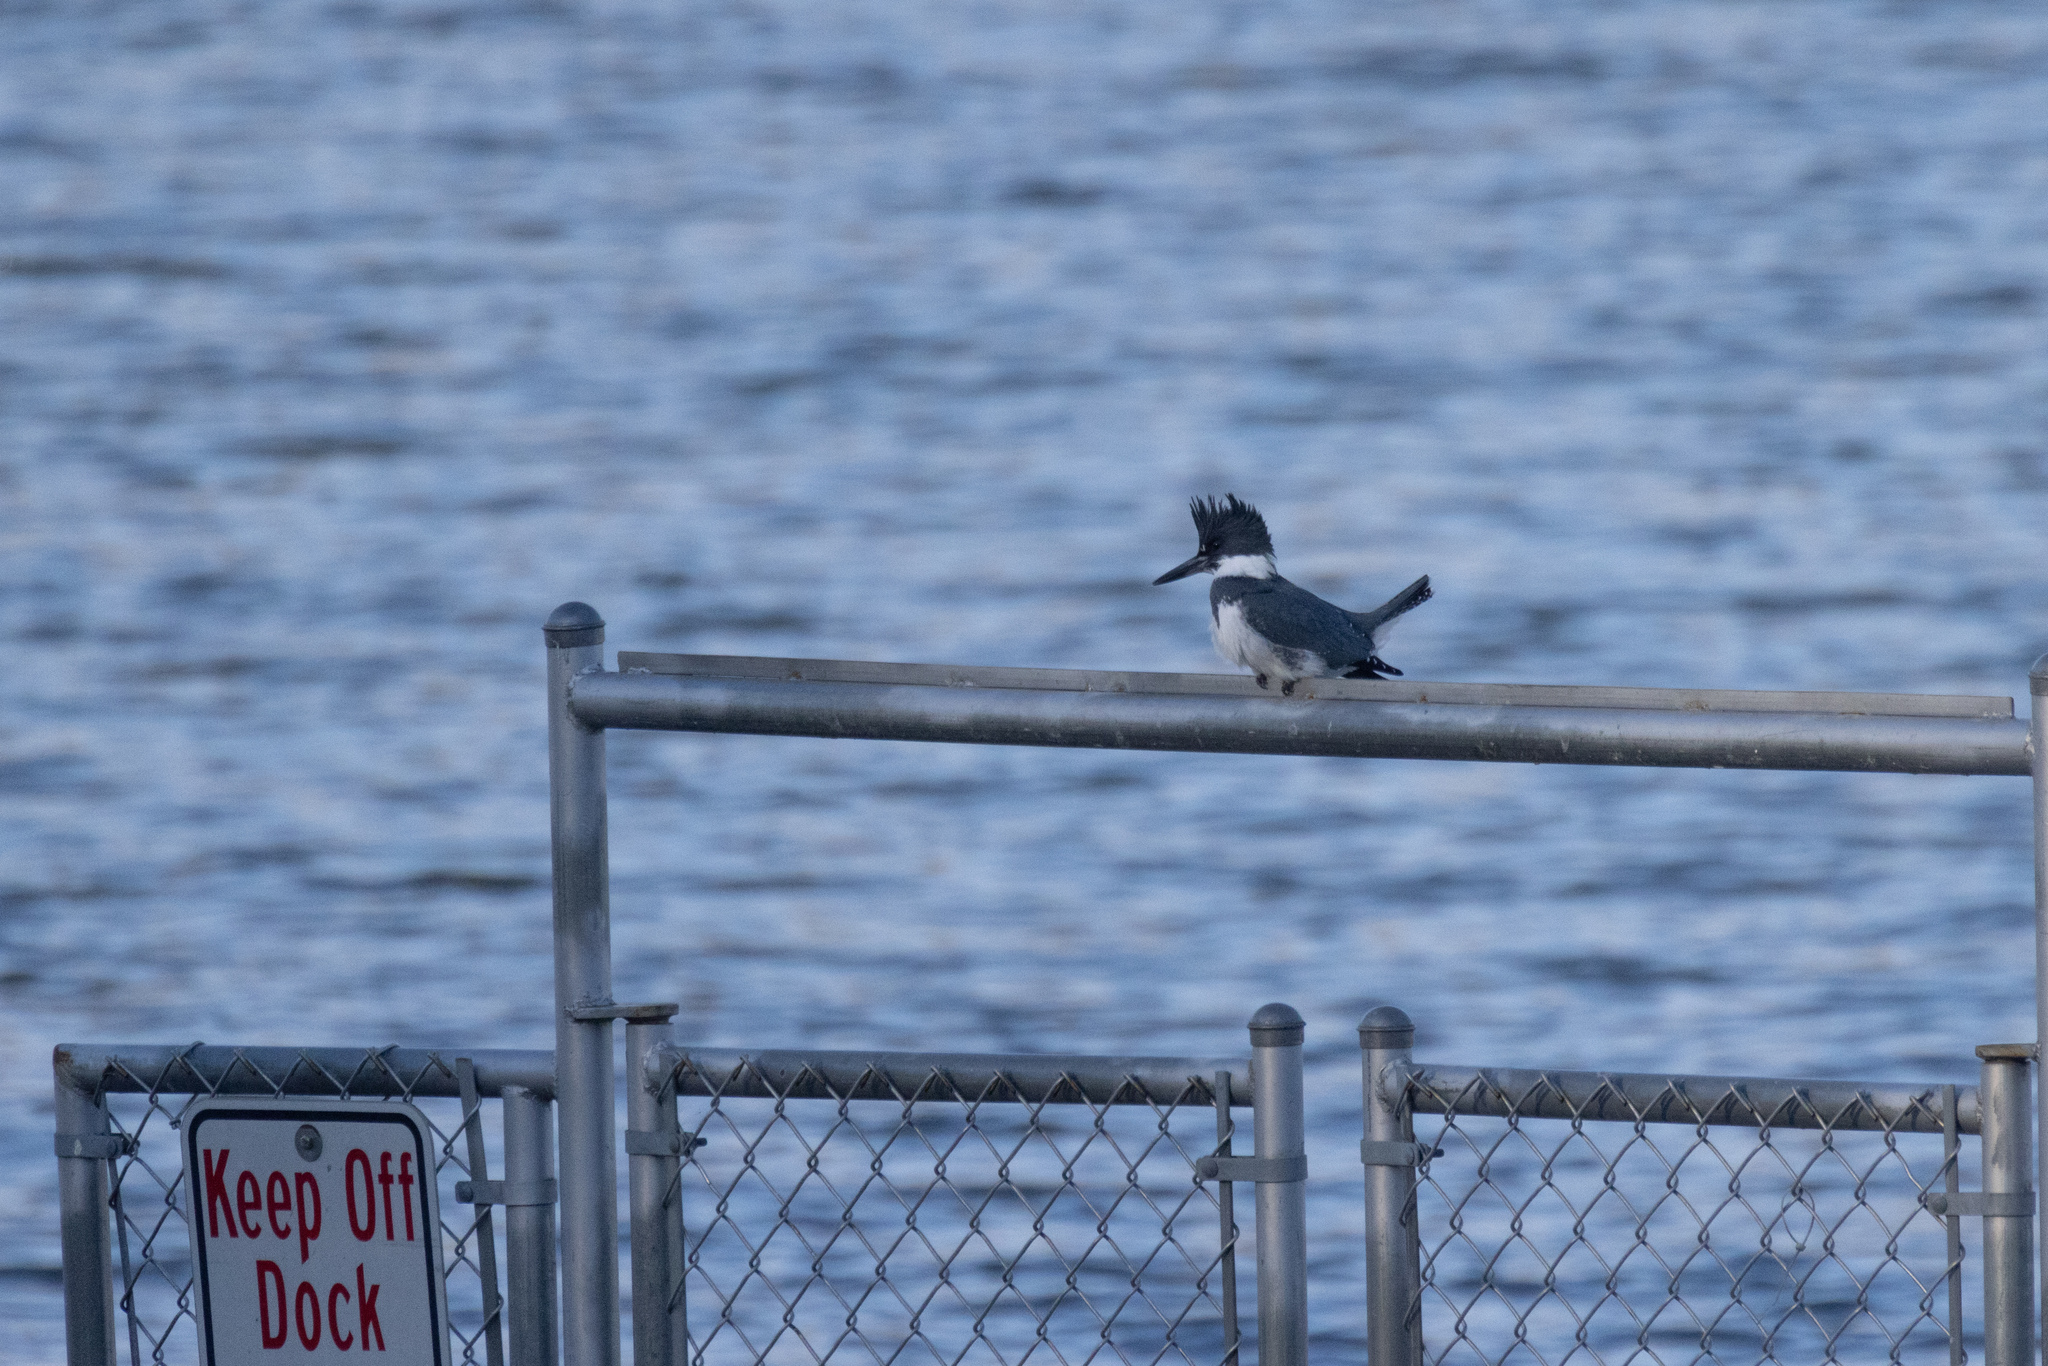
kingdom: Animalia
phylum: Chordata
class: Aves
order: Coraciiformes
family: Alcedinidae
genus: Megaceryle
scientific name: Megaceryle alcyon
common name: Belted kingfisher
